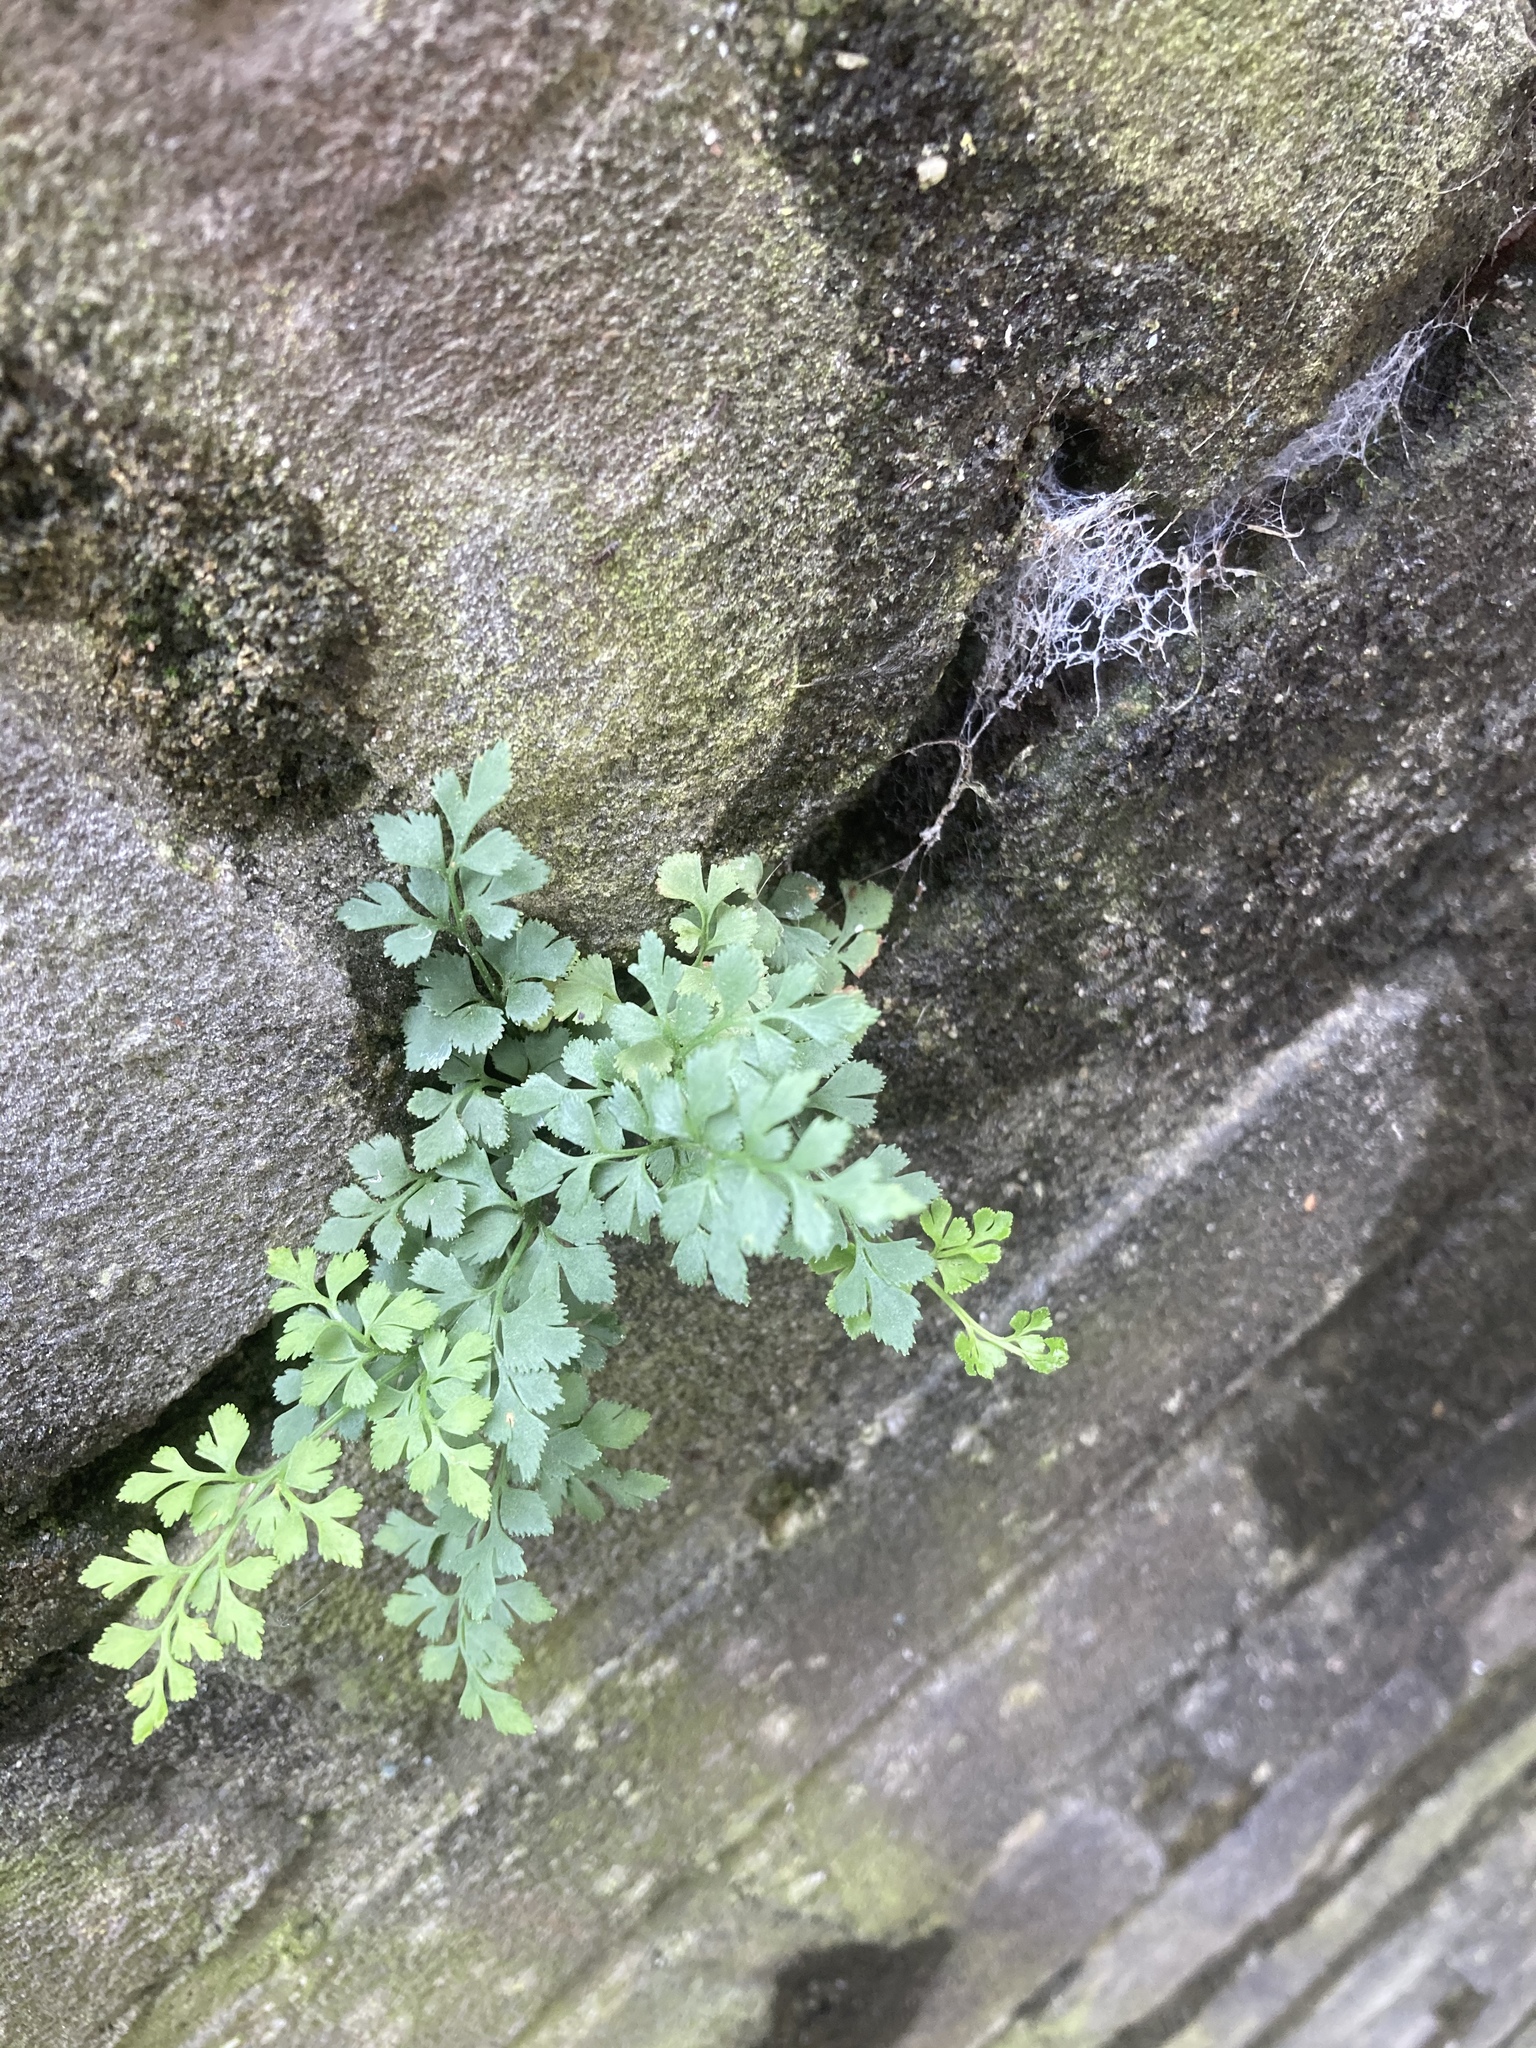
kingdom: Plantae
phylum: Tracheophyta
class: Polypodiopsida
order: Polypodiales
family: Aspleniaceae
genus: Asplenium
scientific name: Asplenium ruta-muraria
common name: Wall-rue
